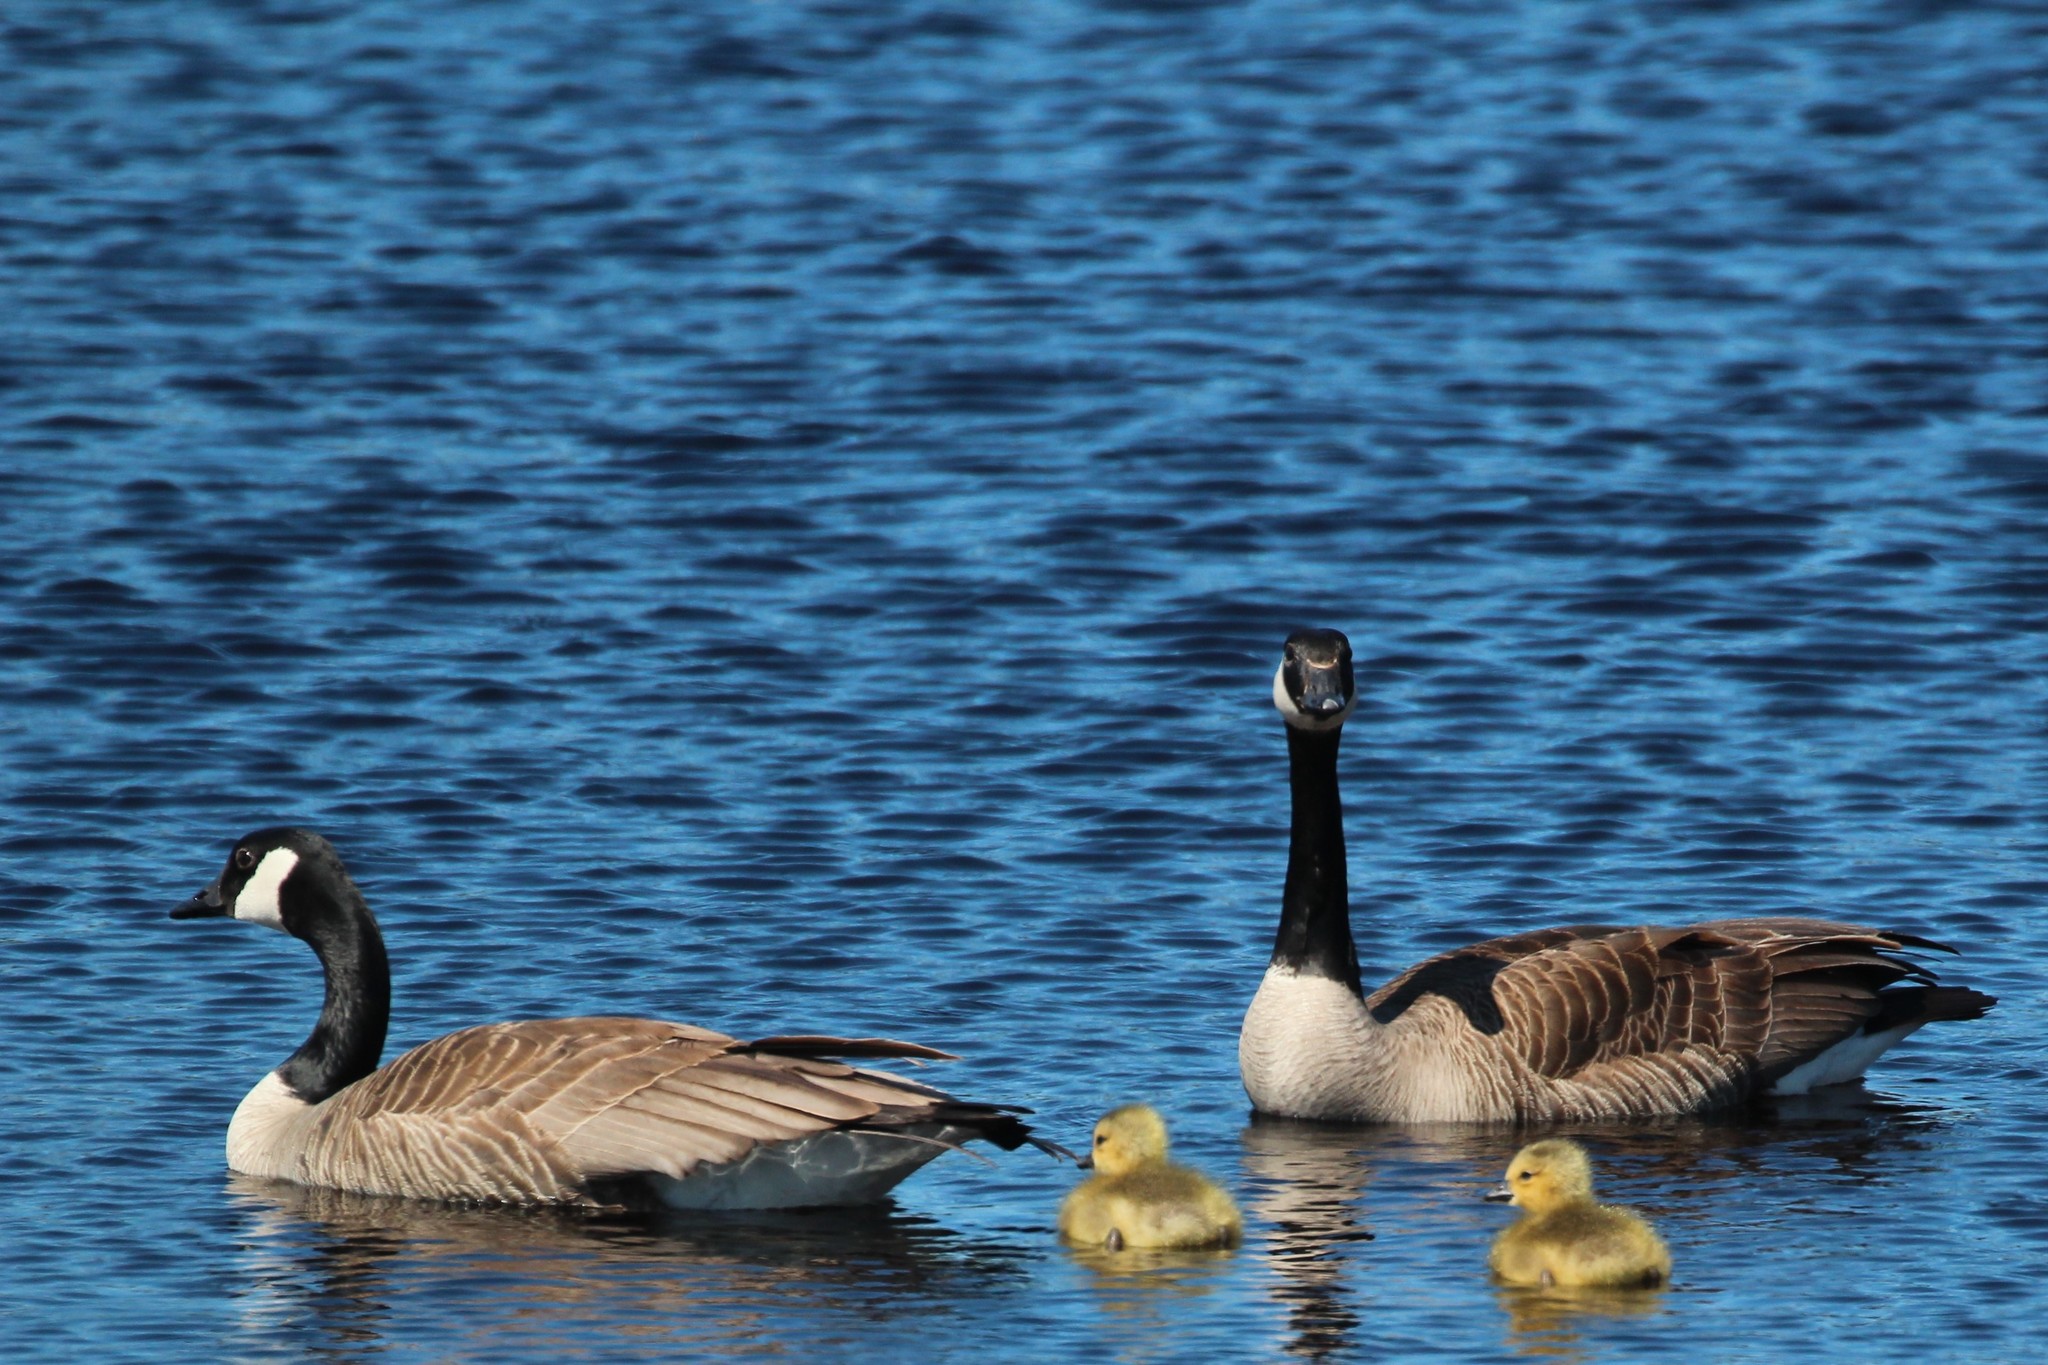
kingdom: Animalia
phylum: Chordata
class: Aves
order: Anseriformes
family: Anatidae
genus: Branta
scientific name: Branta canadensis
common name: Canada goose
